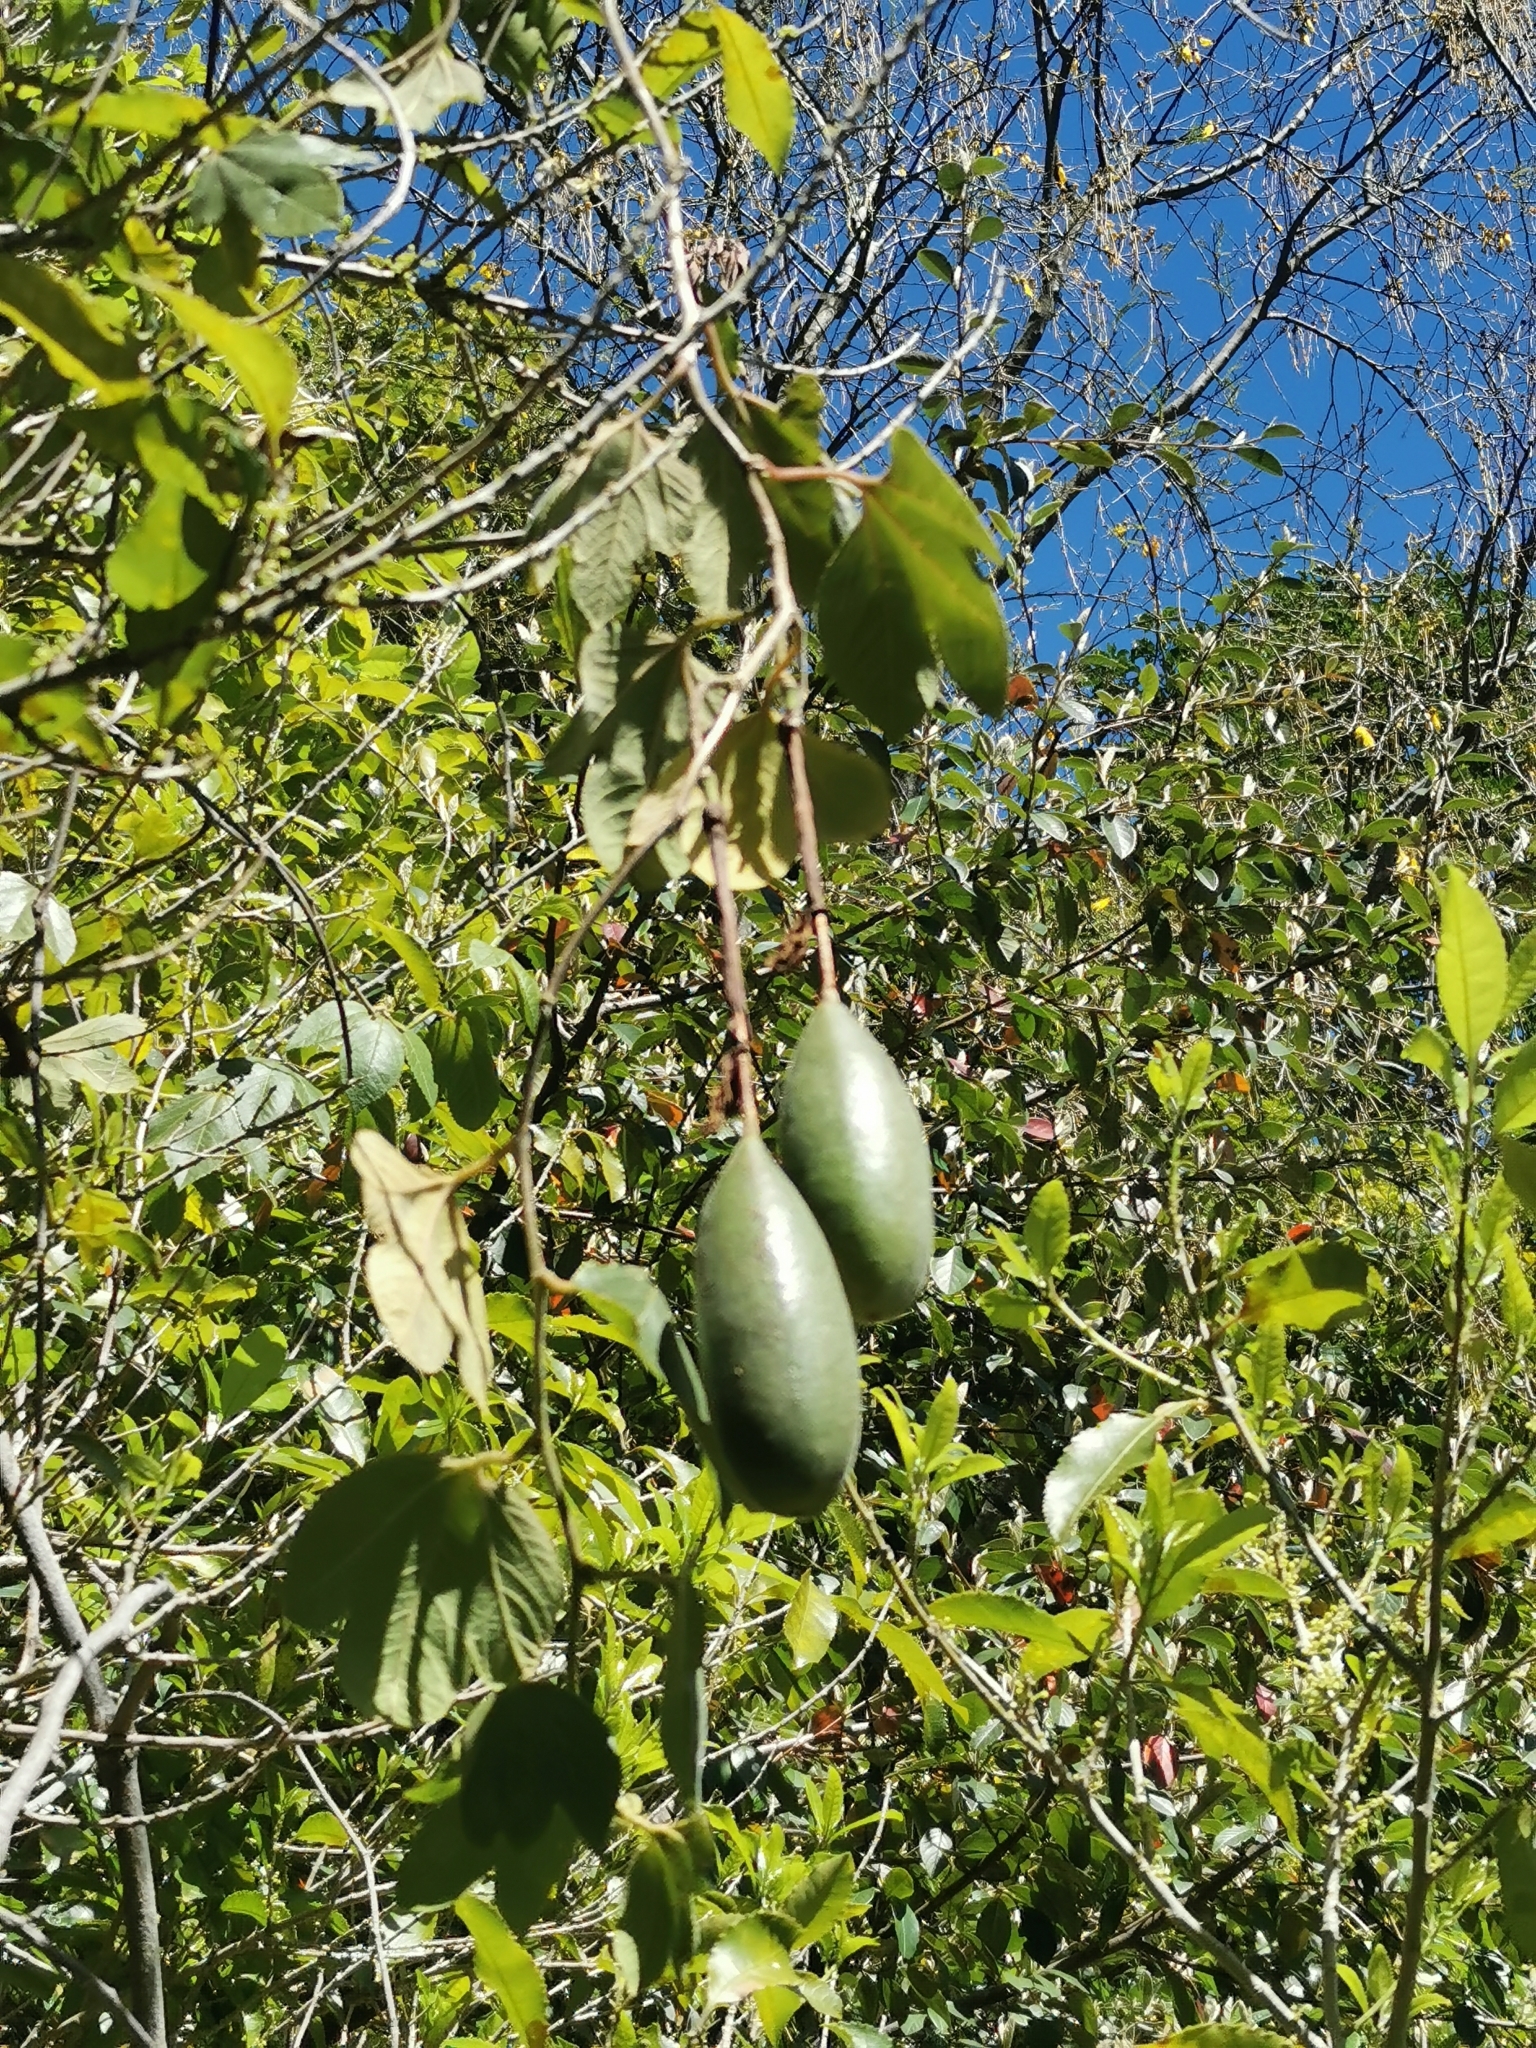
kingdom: Plantae
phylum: Tracheophyta
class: Magnoliopsida
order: Malpighiales
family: Passifloraceae
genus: Passiflora
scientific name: Passiflora tripartita
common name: Banana poka
